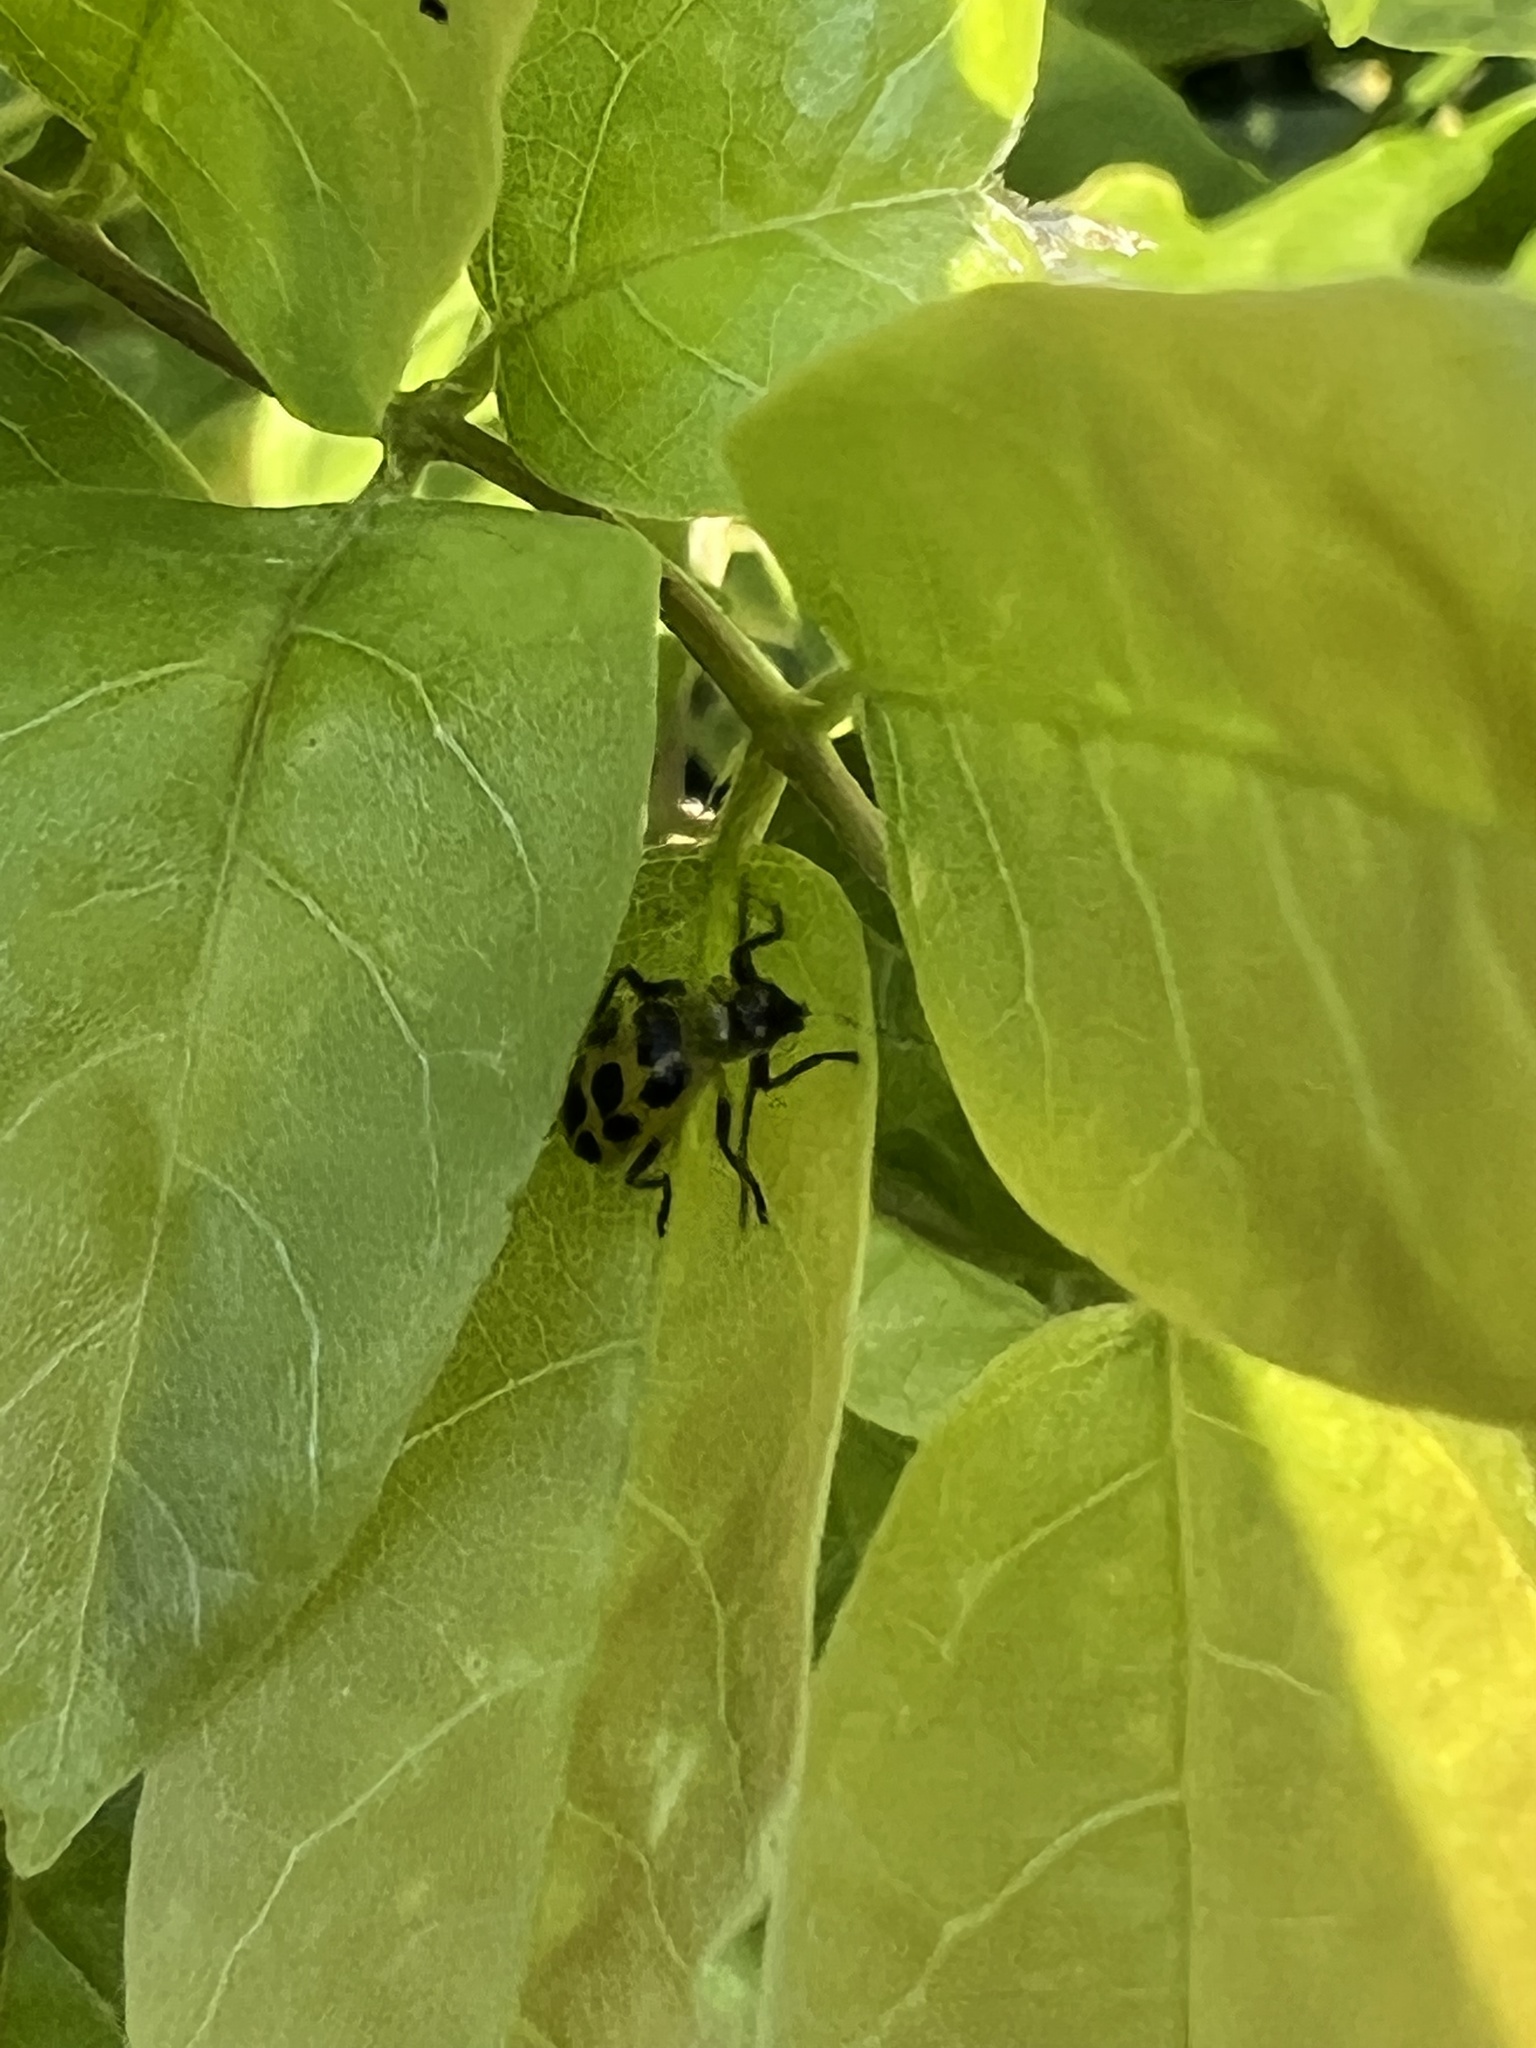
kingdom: Animalia
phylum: Arthropoda
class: Insecta
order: Coleoptera
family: Chrysomelidae
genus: Diabrotica
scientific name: Diabrotica undecimpunctata
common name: Spotted cucumber beetle
